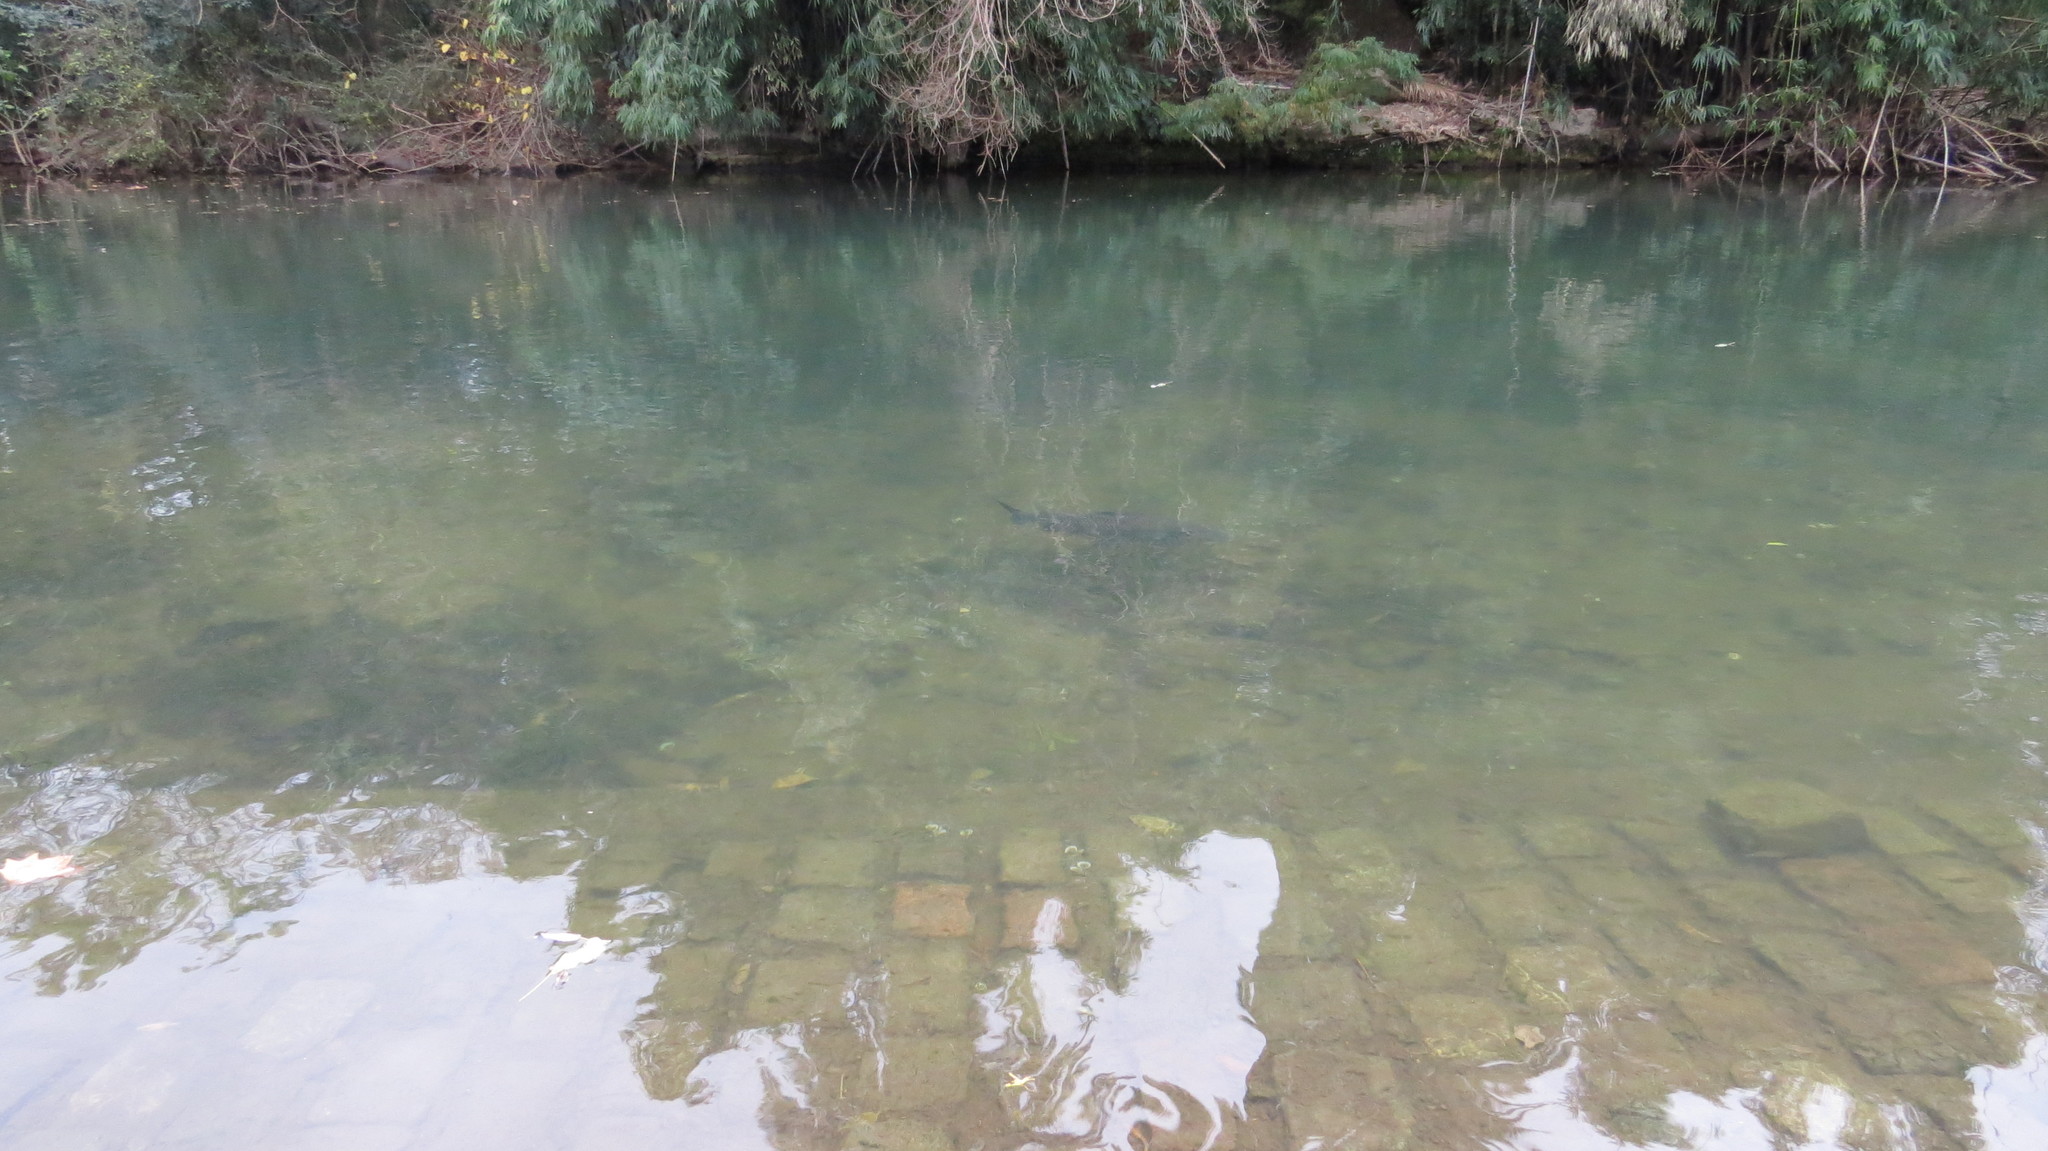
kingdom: Animalia
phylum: Chordata
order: Characiformes
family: Prochilodontidae
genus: Prochilodus
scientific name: Prochilodus lineatus
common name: Curimbata
